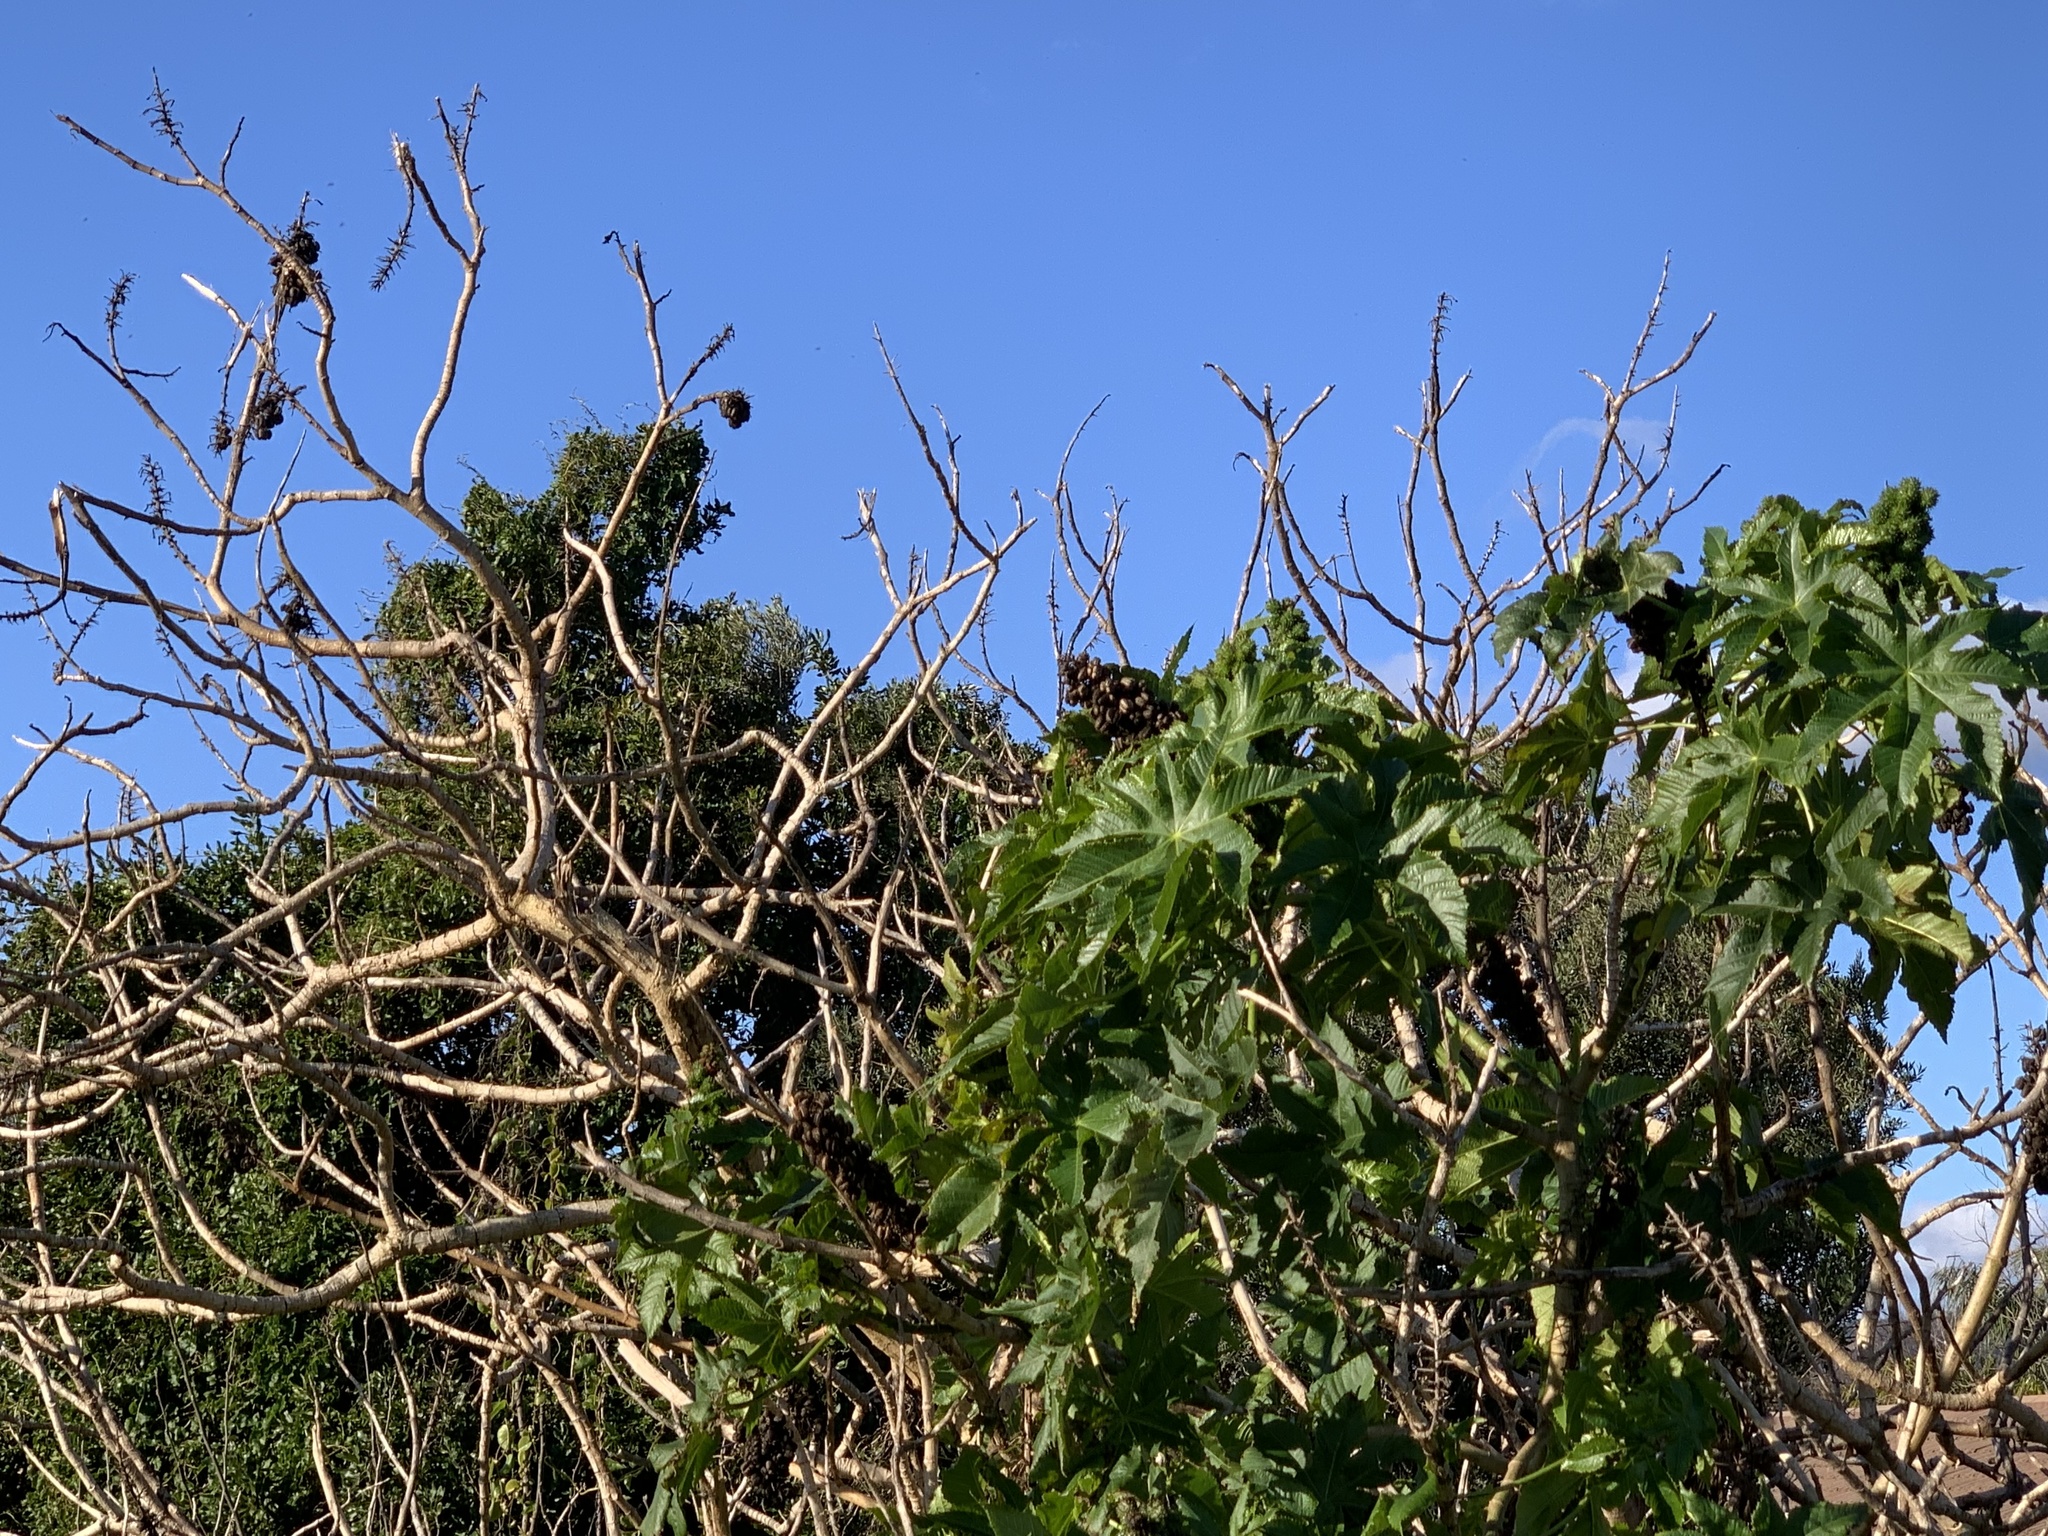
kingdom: Plantae
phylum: Tracheophyta
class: Magnoliopsida
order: Malpighiales
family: Euphorbiaceae
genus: Ricinus
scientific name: Ricinus communis
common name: Castor-oil-plant
